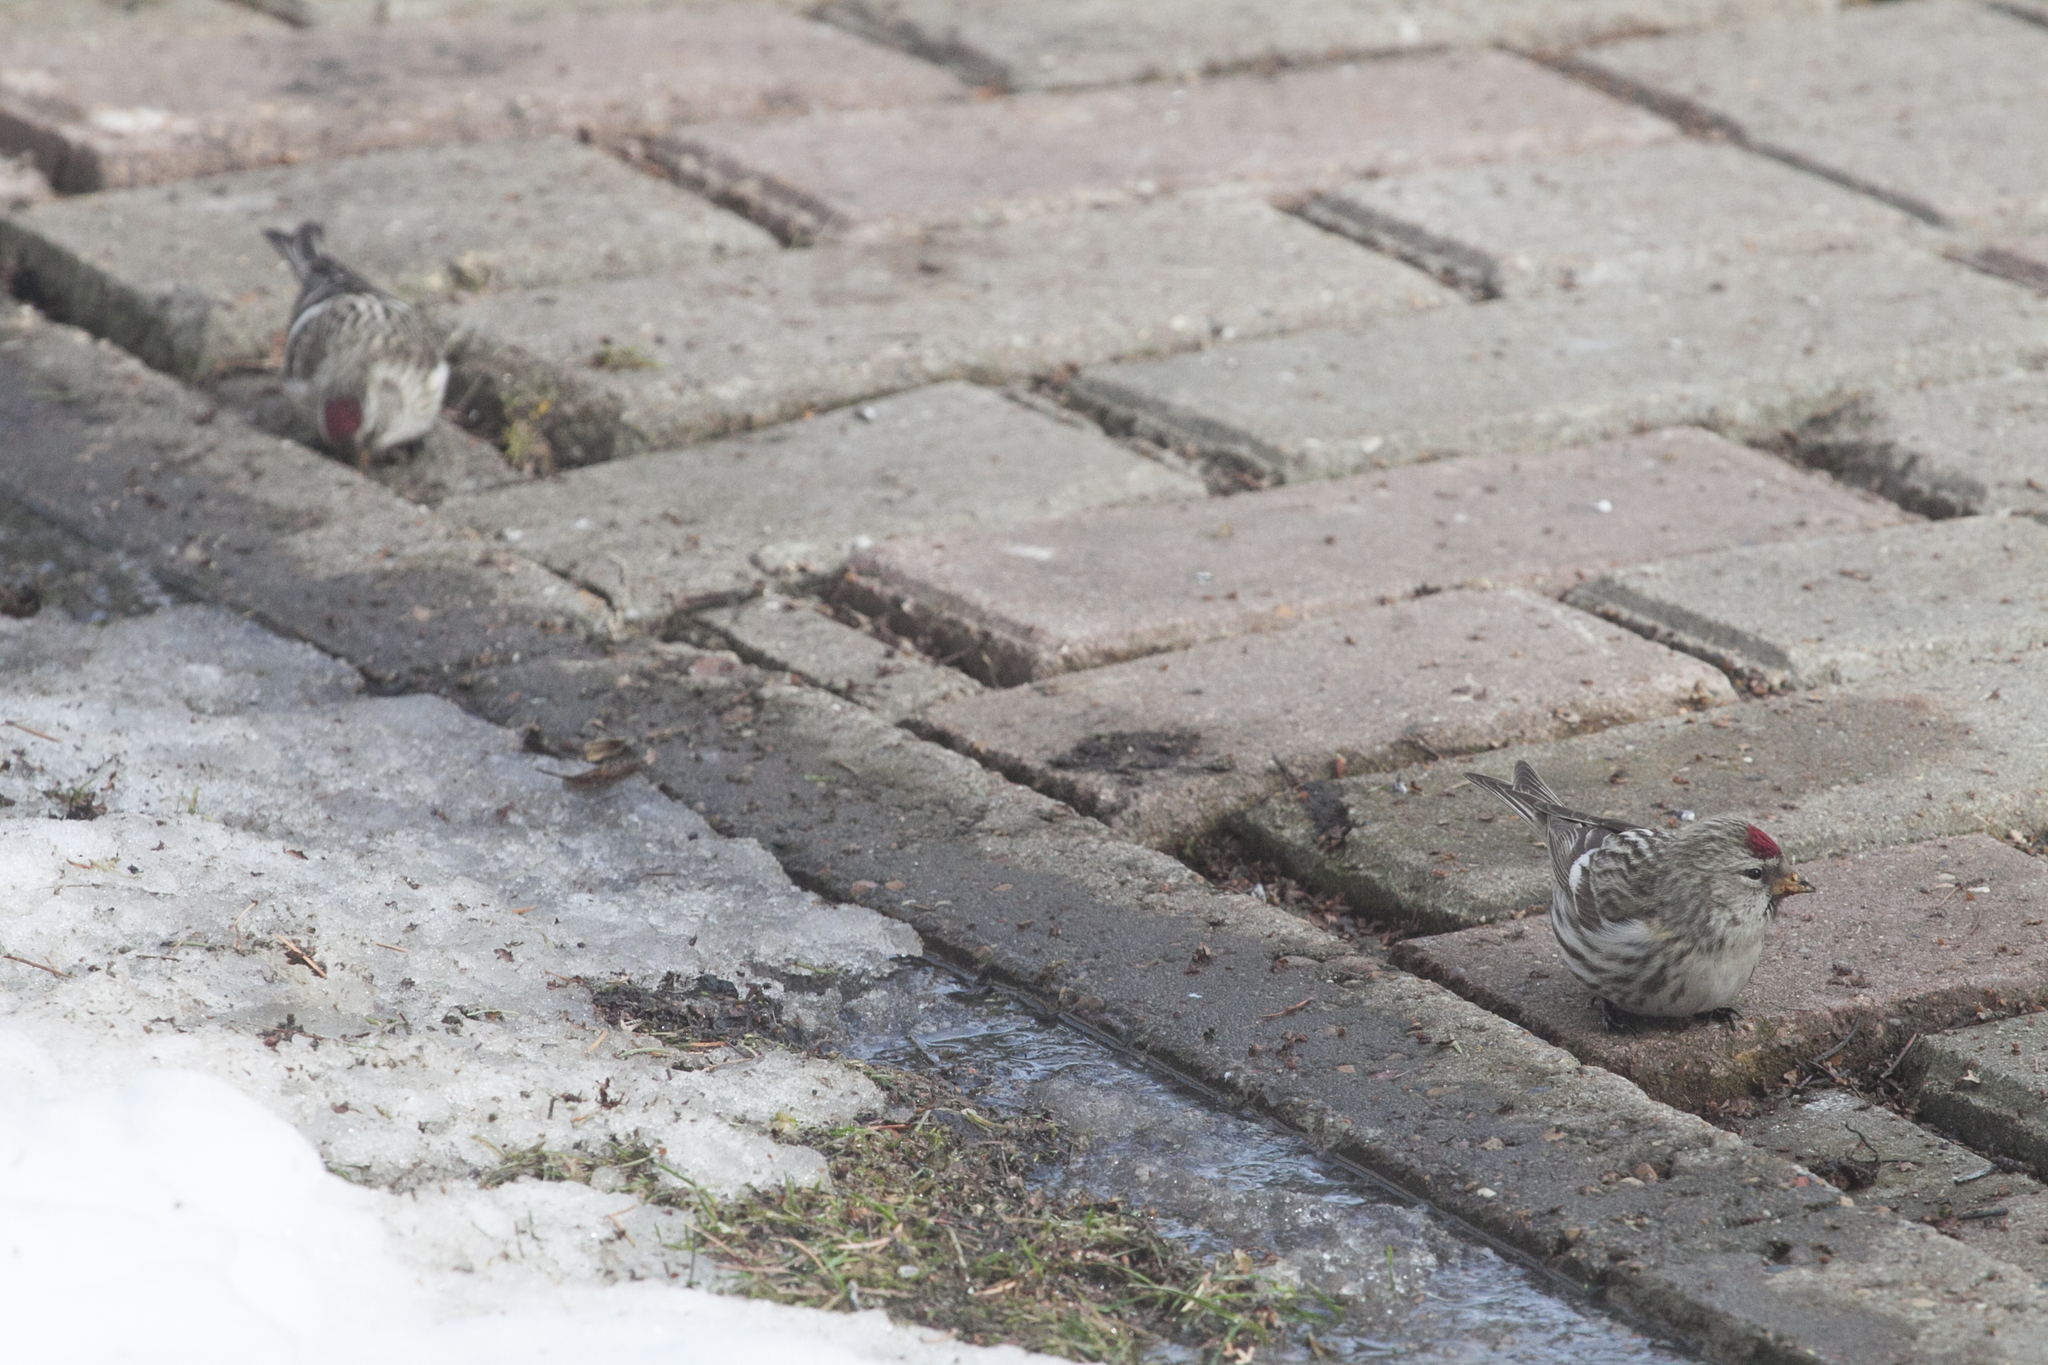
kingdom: Animalia
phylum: Chordata
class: Aves
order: Passeriformes
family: Fringillidae
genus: Acanthis
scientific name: Acanthis flammea
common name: Common redpoll
